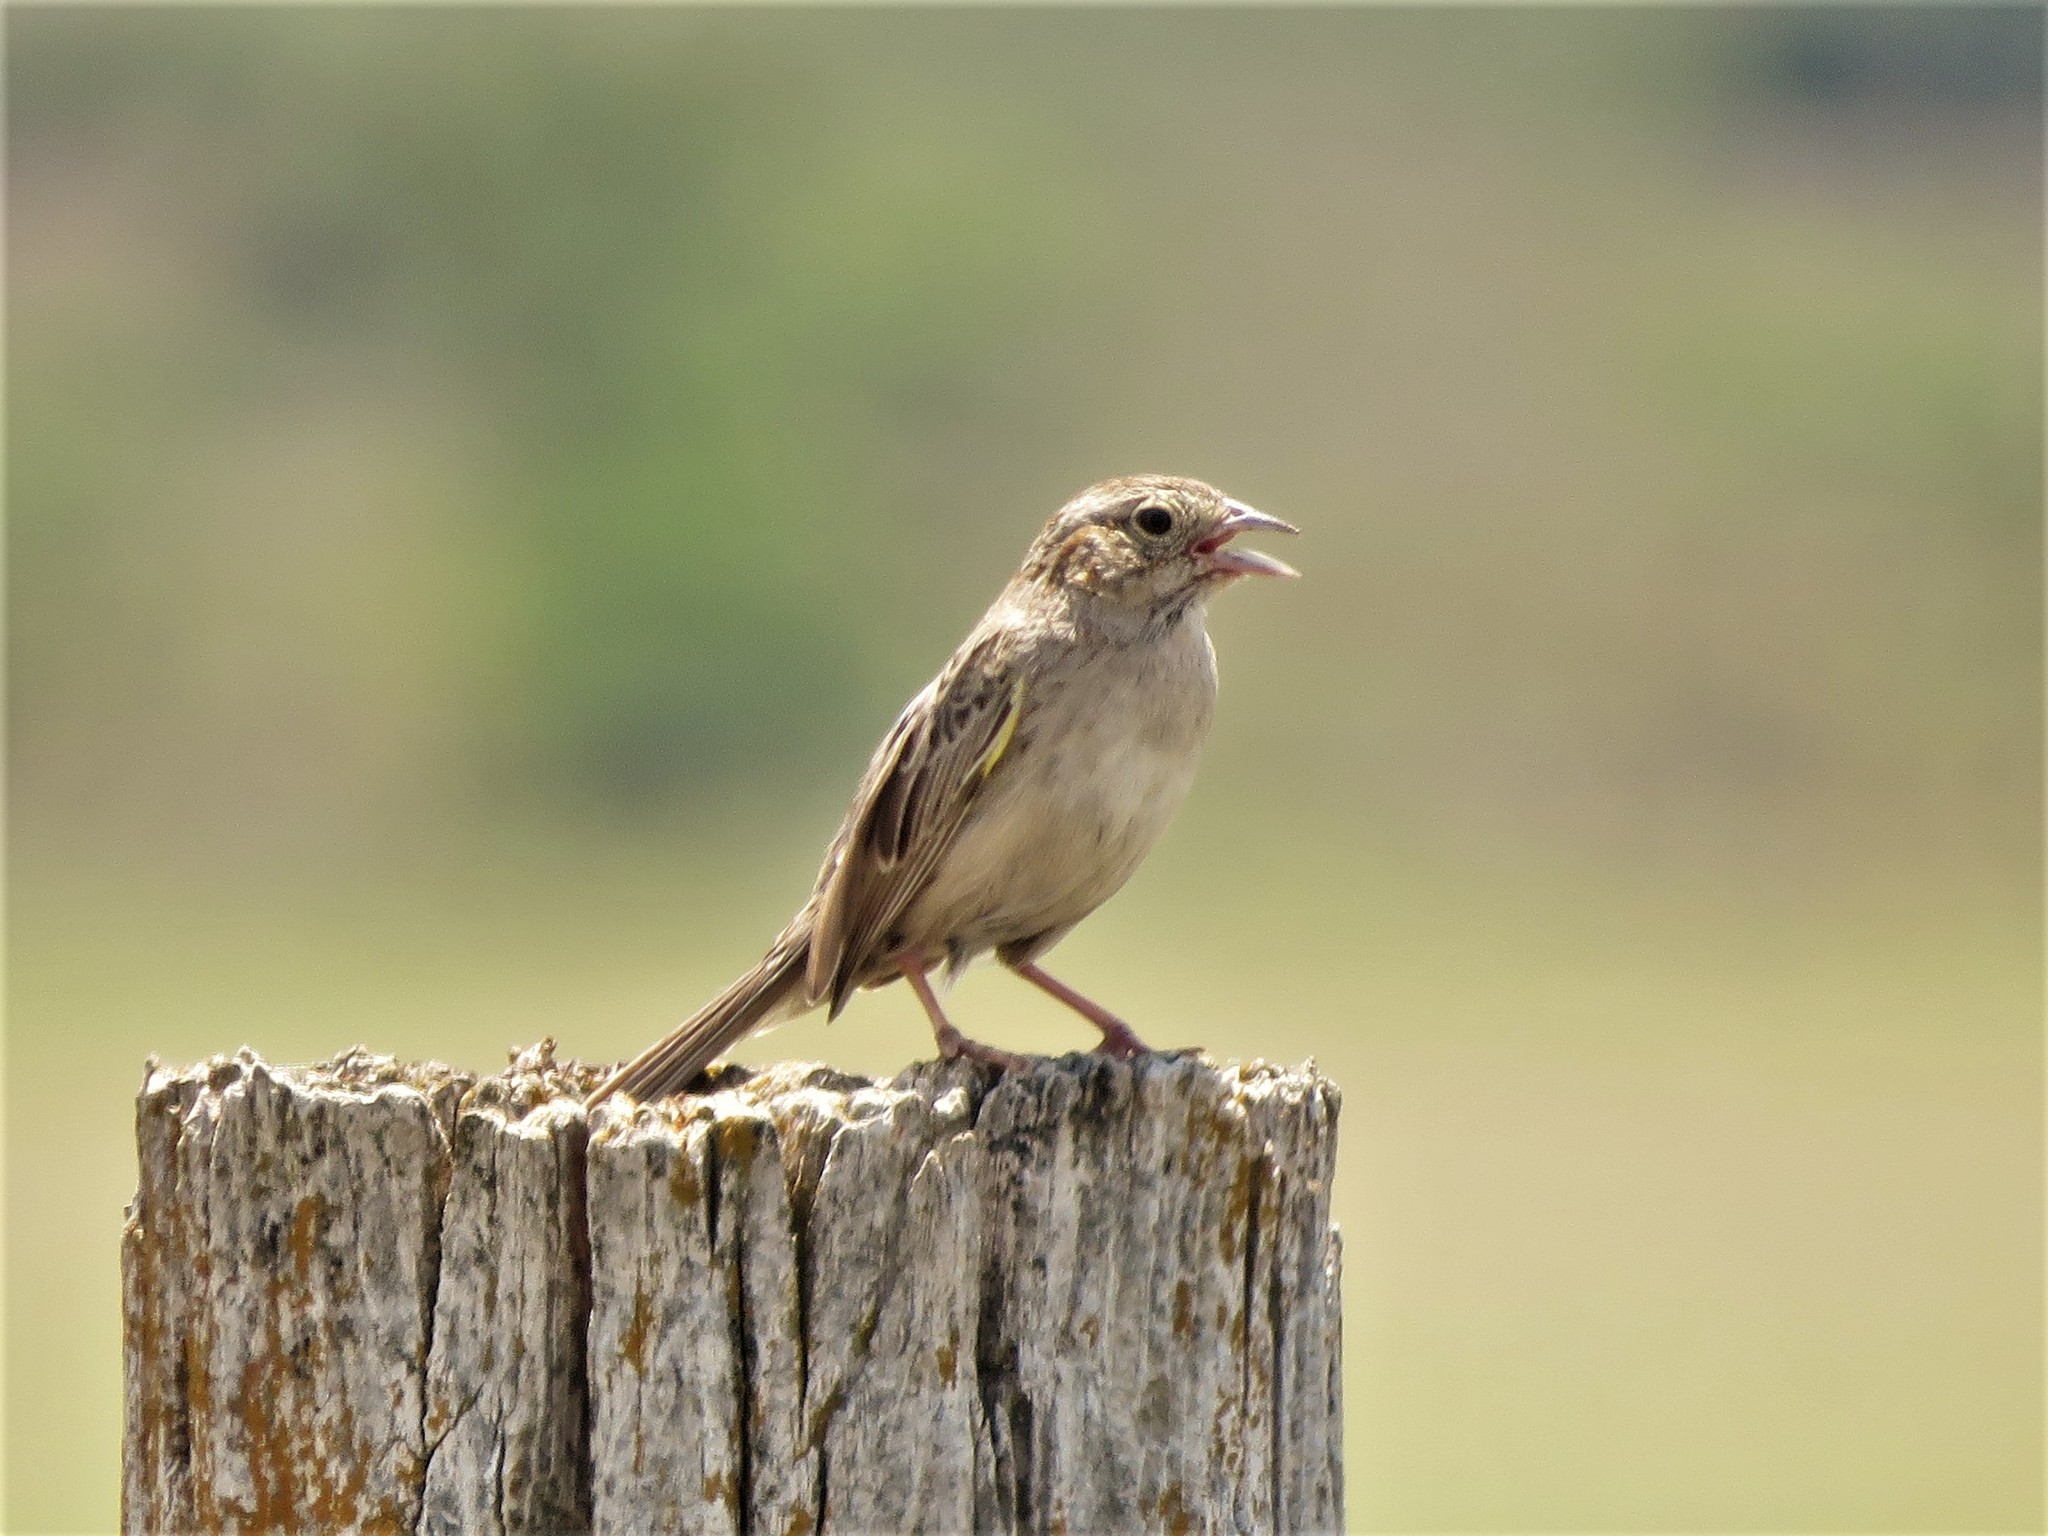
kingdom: Animalia
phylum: Chordata
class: Aves
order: Passeriformes
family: Passerellidae
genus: Peucaea
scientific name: Peucaea cassinii
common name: Cassin's sparrow
